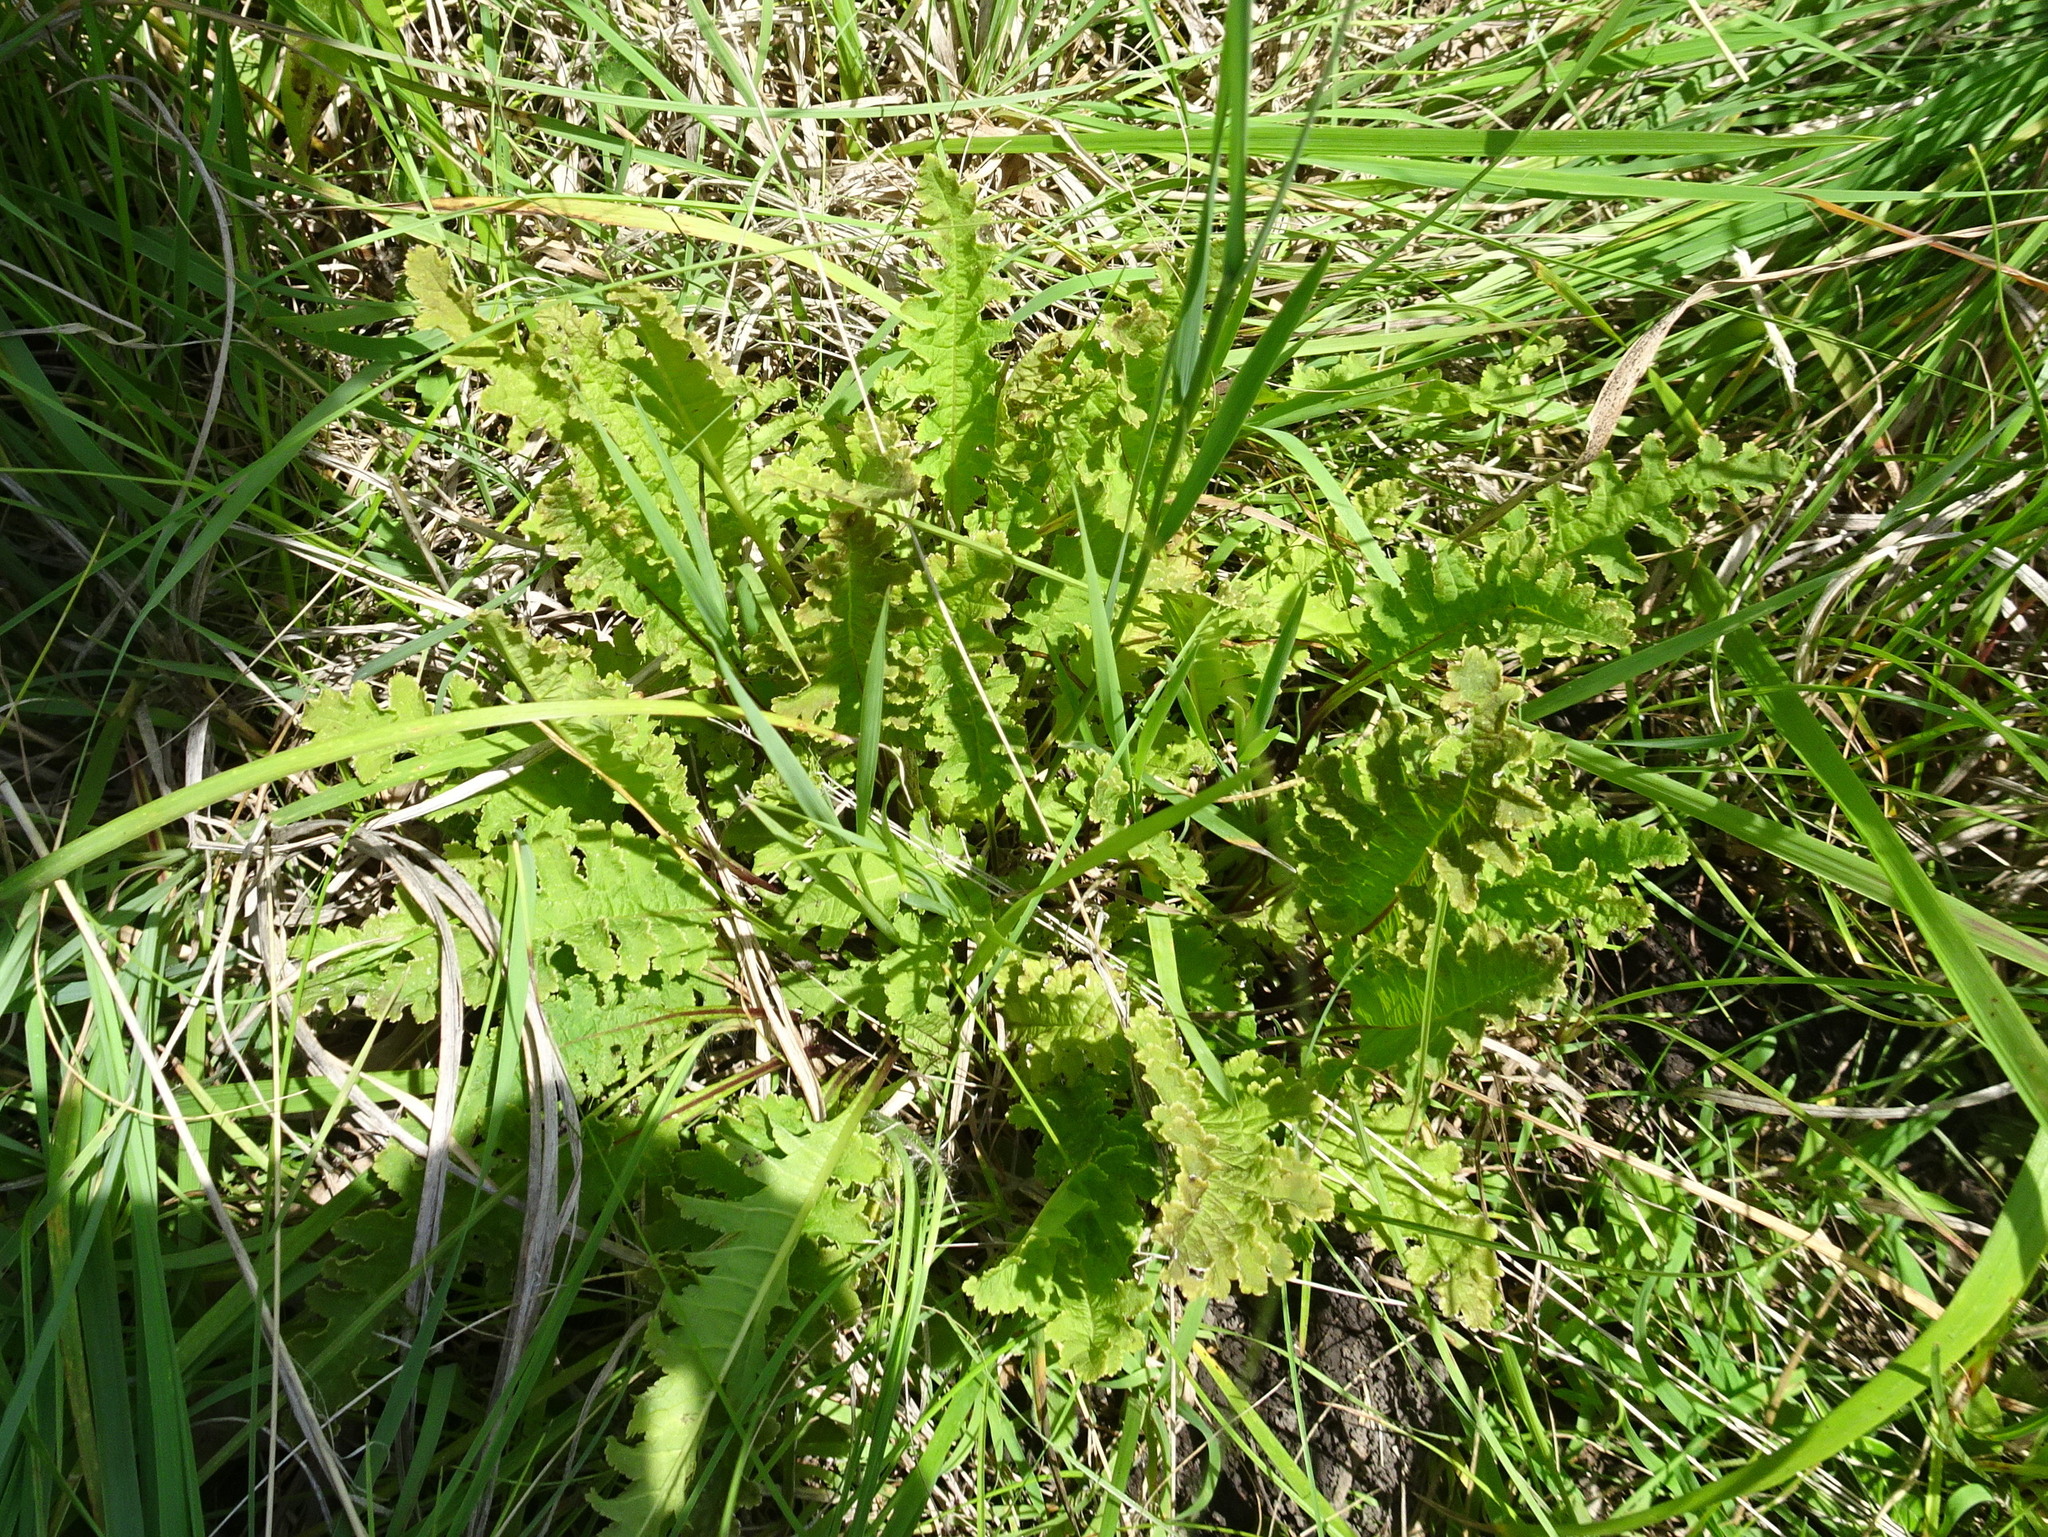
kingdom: Plantae
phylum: Tracheophyta
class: Magnoliopsida
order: Lamiales
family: Orobanchaceae
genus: Pedicularis
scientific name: Pedicularis canadensis
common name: Early lousewort
